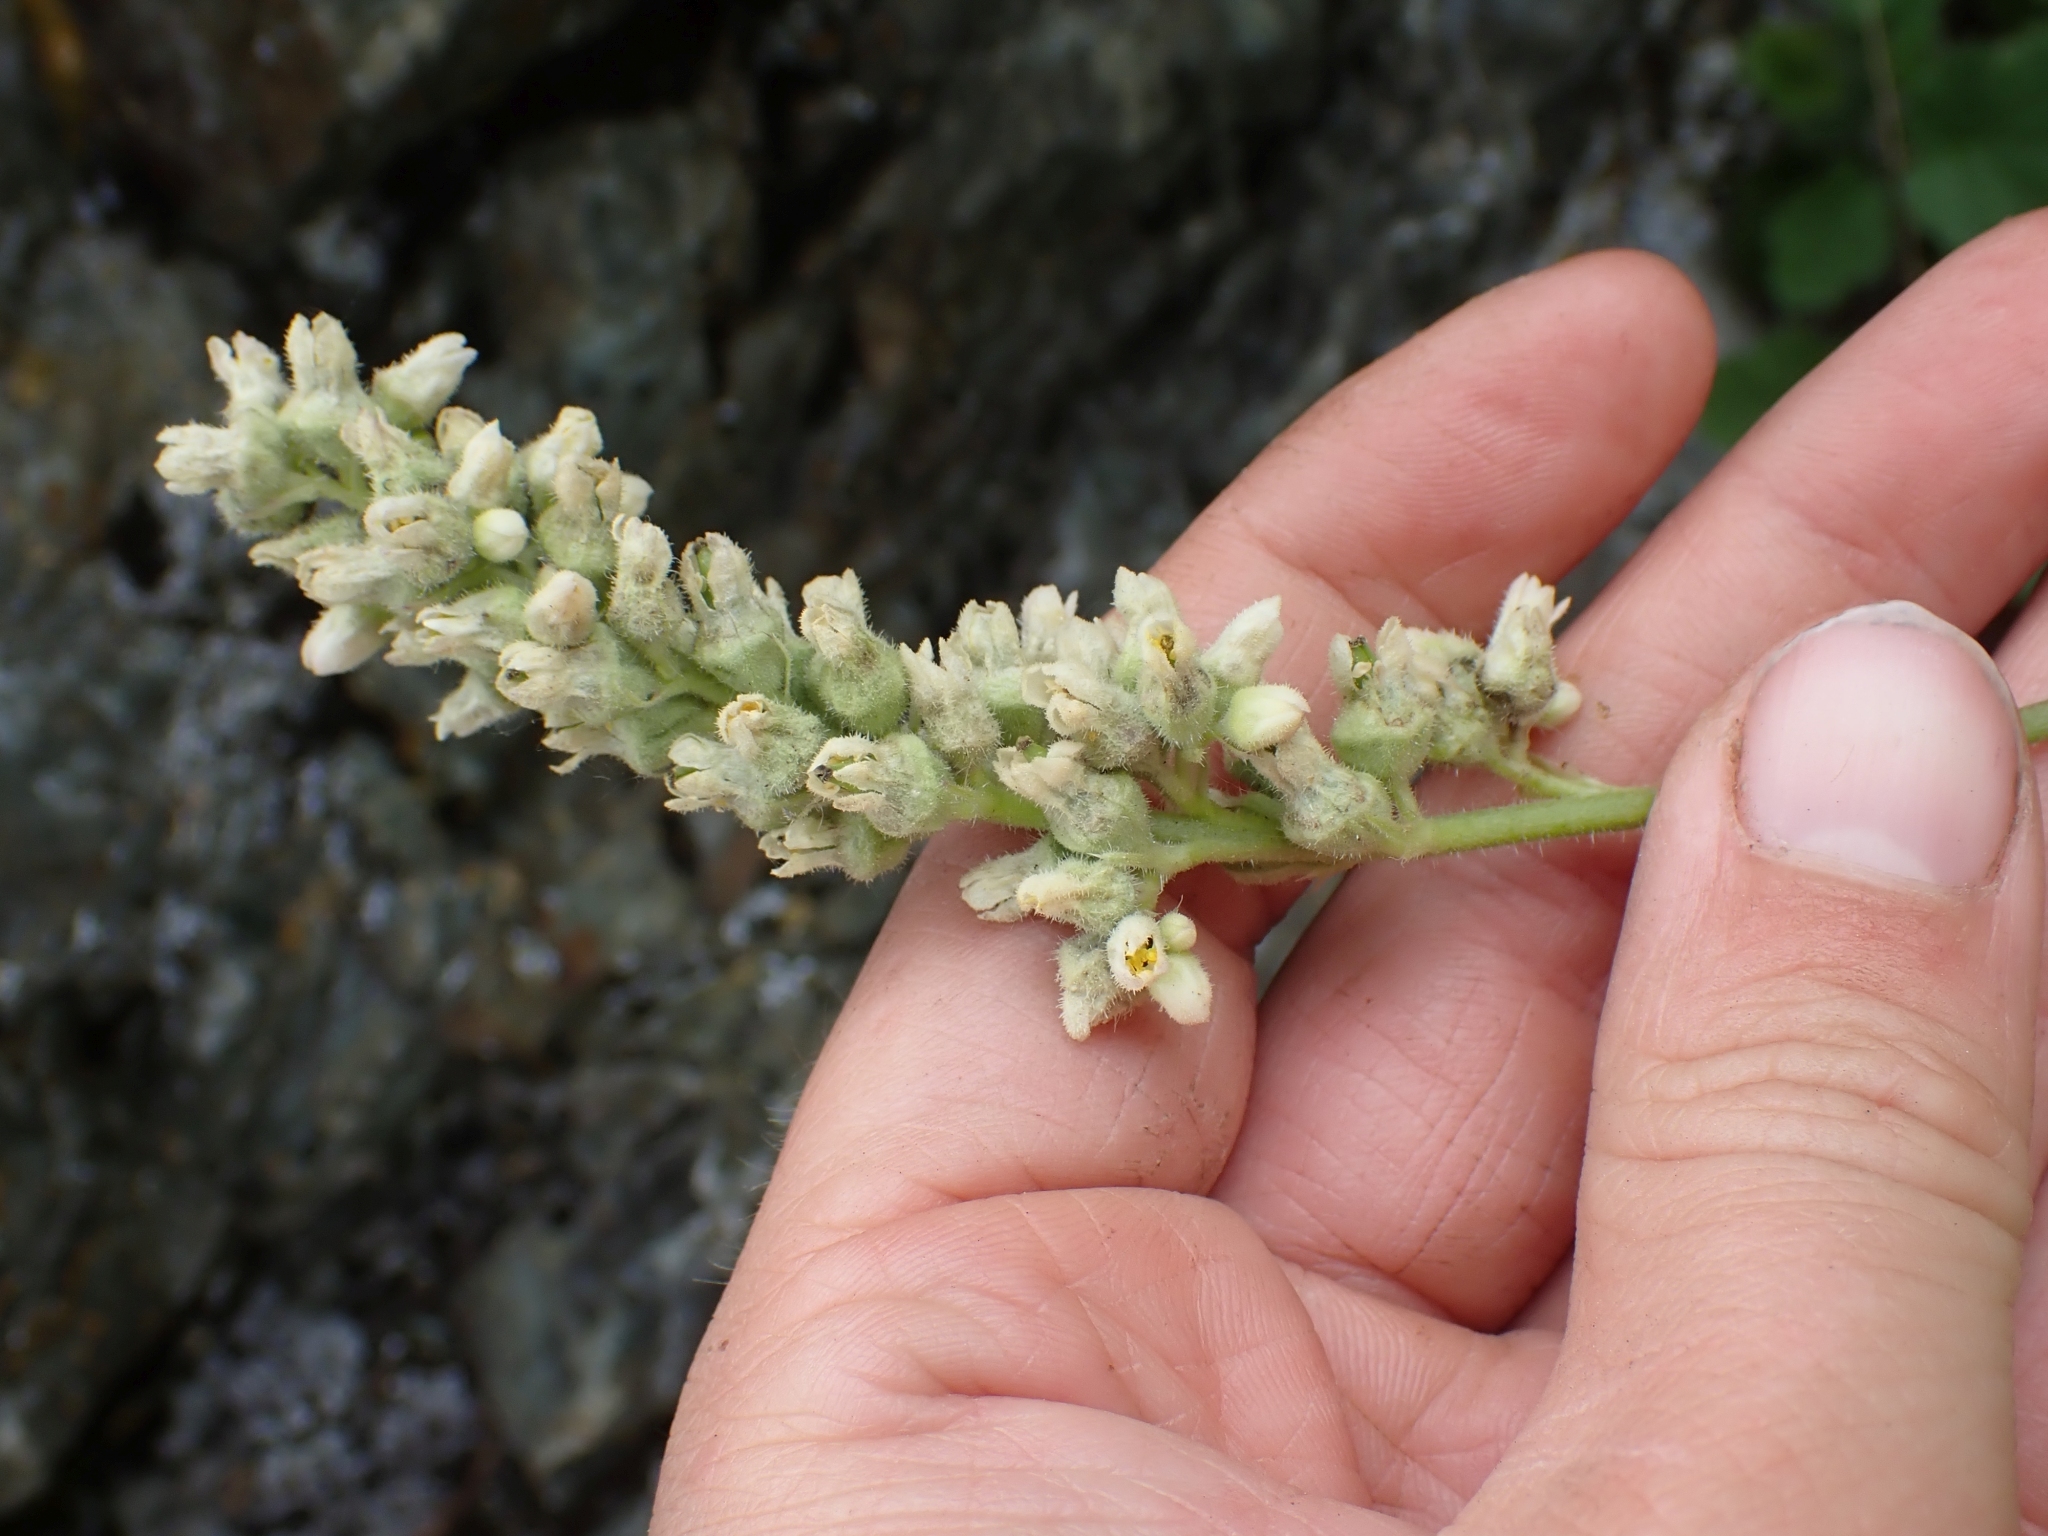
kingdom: Plantae
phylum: Tracheophyta
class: Magnoliopsida
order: Saxifragales
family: Saxifragaceae
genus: Heuchera
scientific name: Heuchera cylindrica
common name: Mat alumroot
